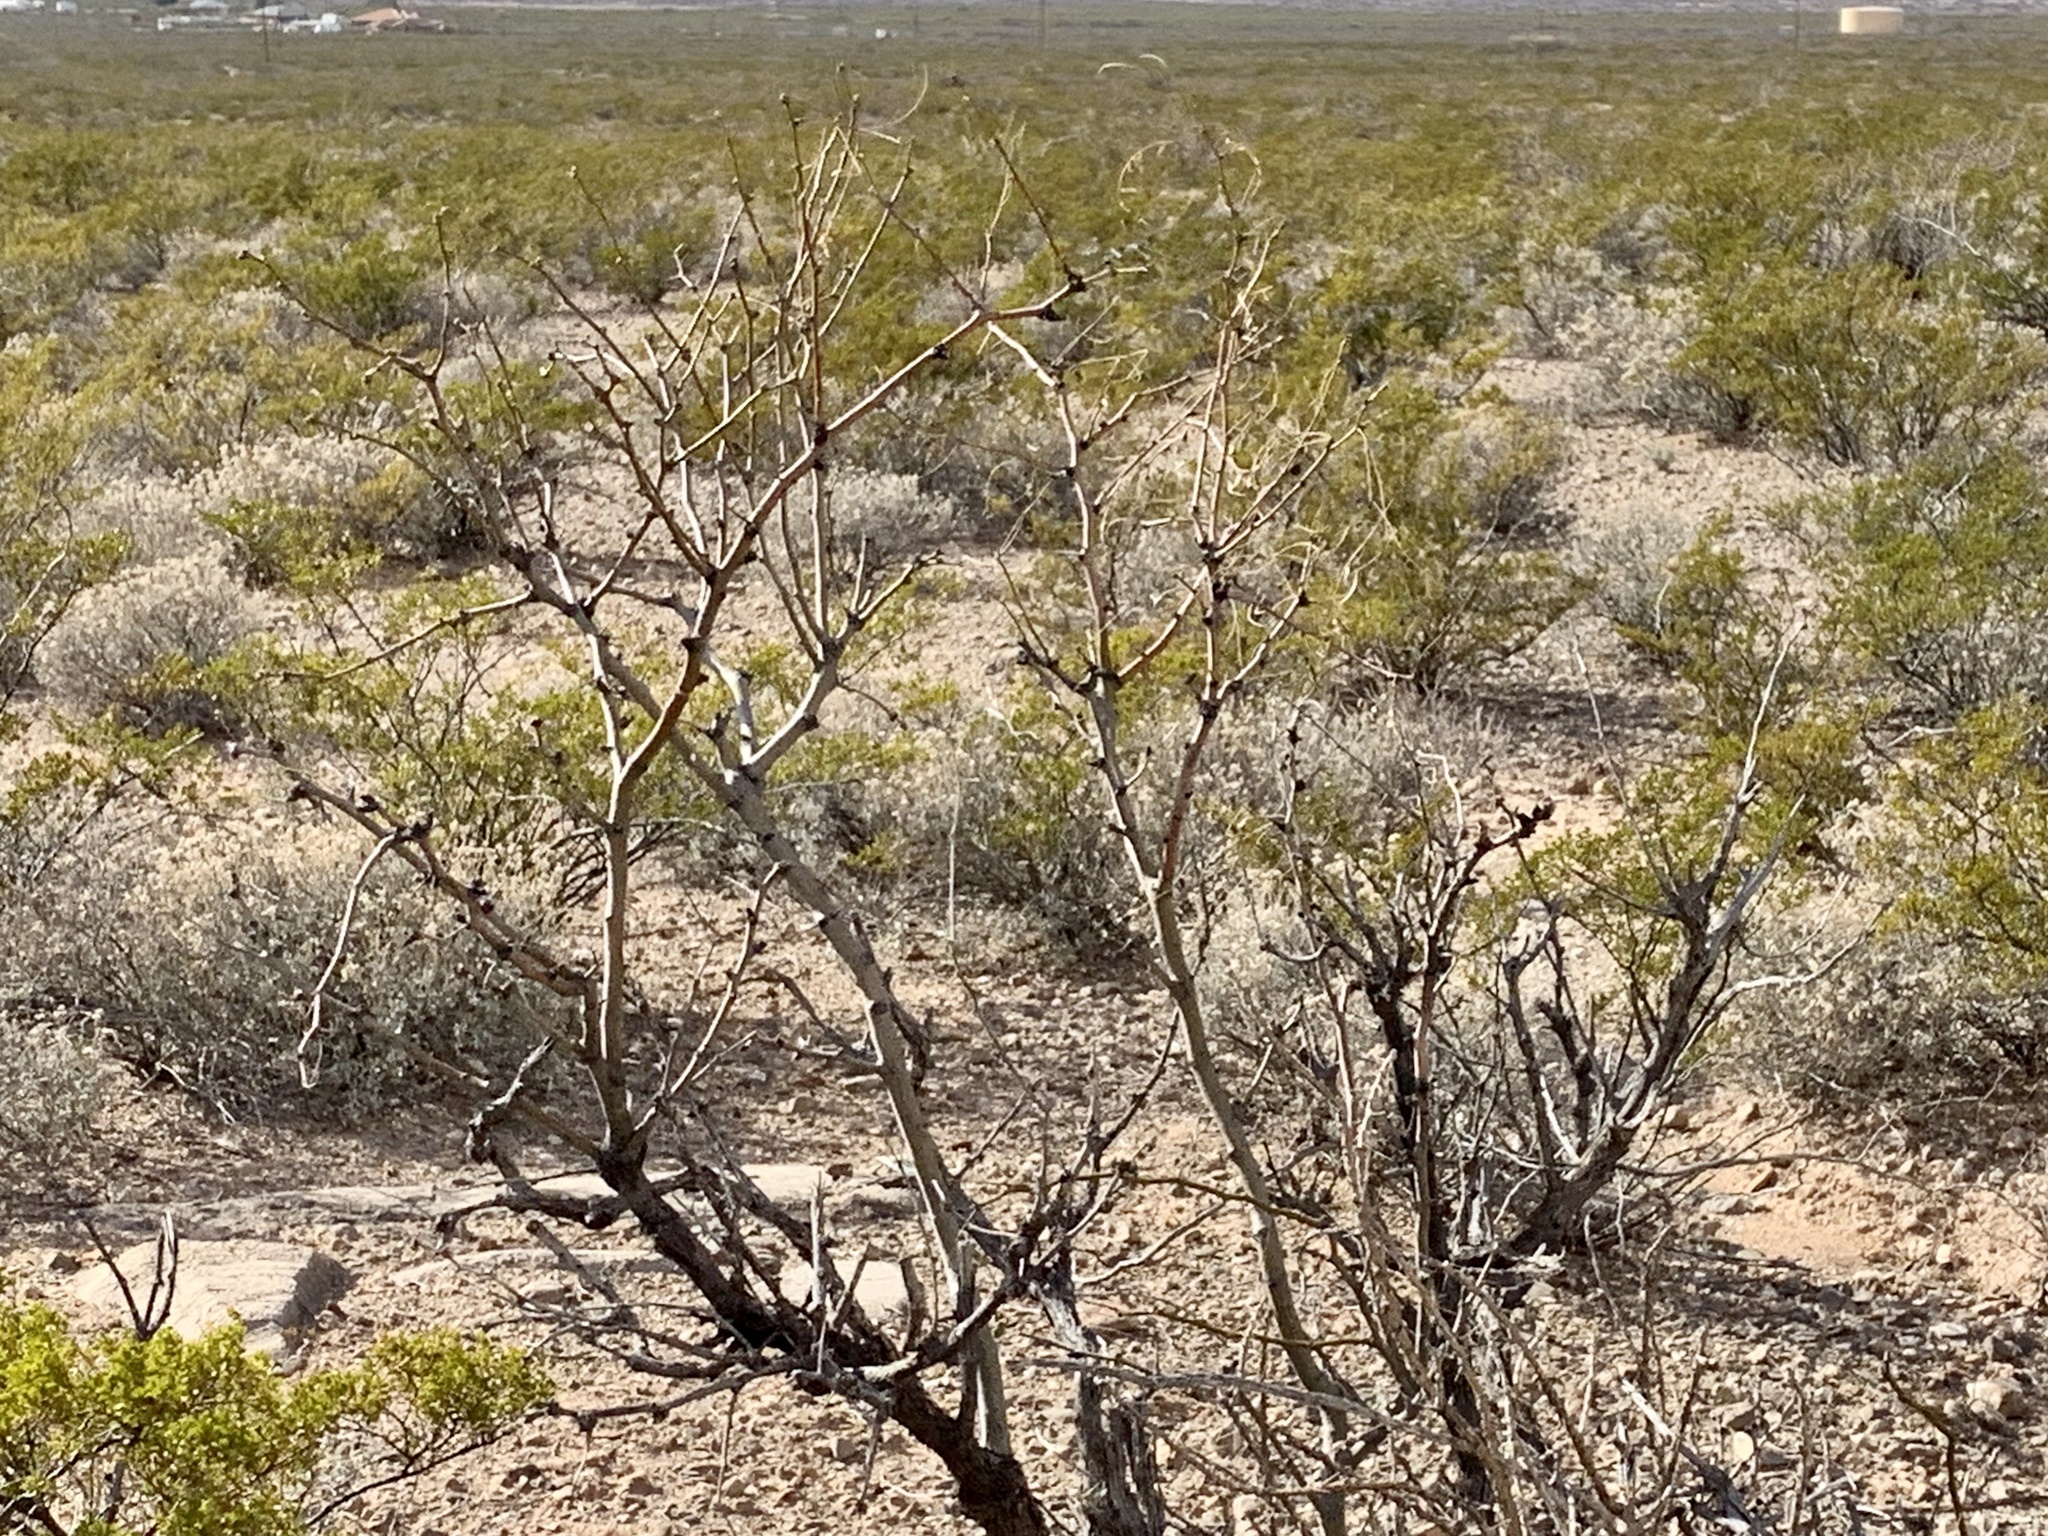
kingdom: Plantae
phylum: Tracheophyta
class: Magnoliopsida
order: Fabales
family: Fabaceae
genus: Prosopis
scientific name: Prosopis glandulosa
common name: Honey mesquite
